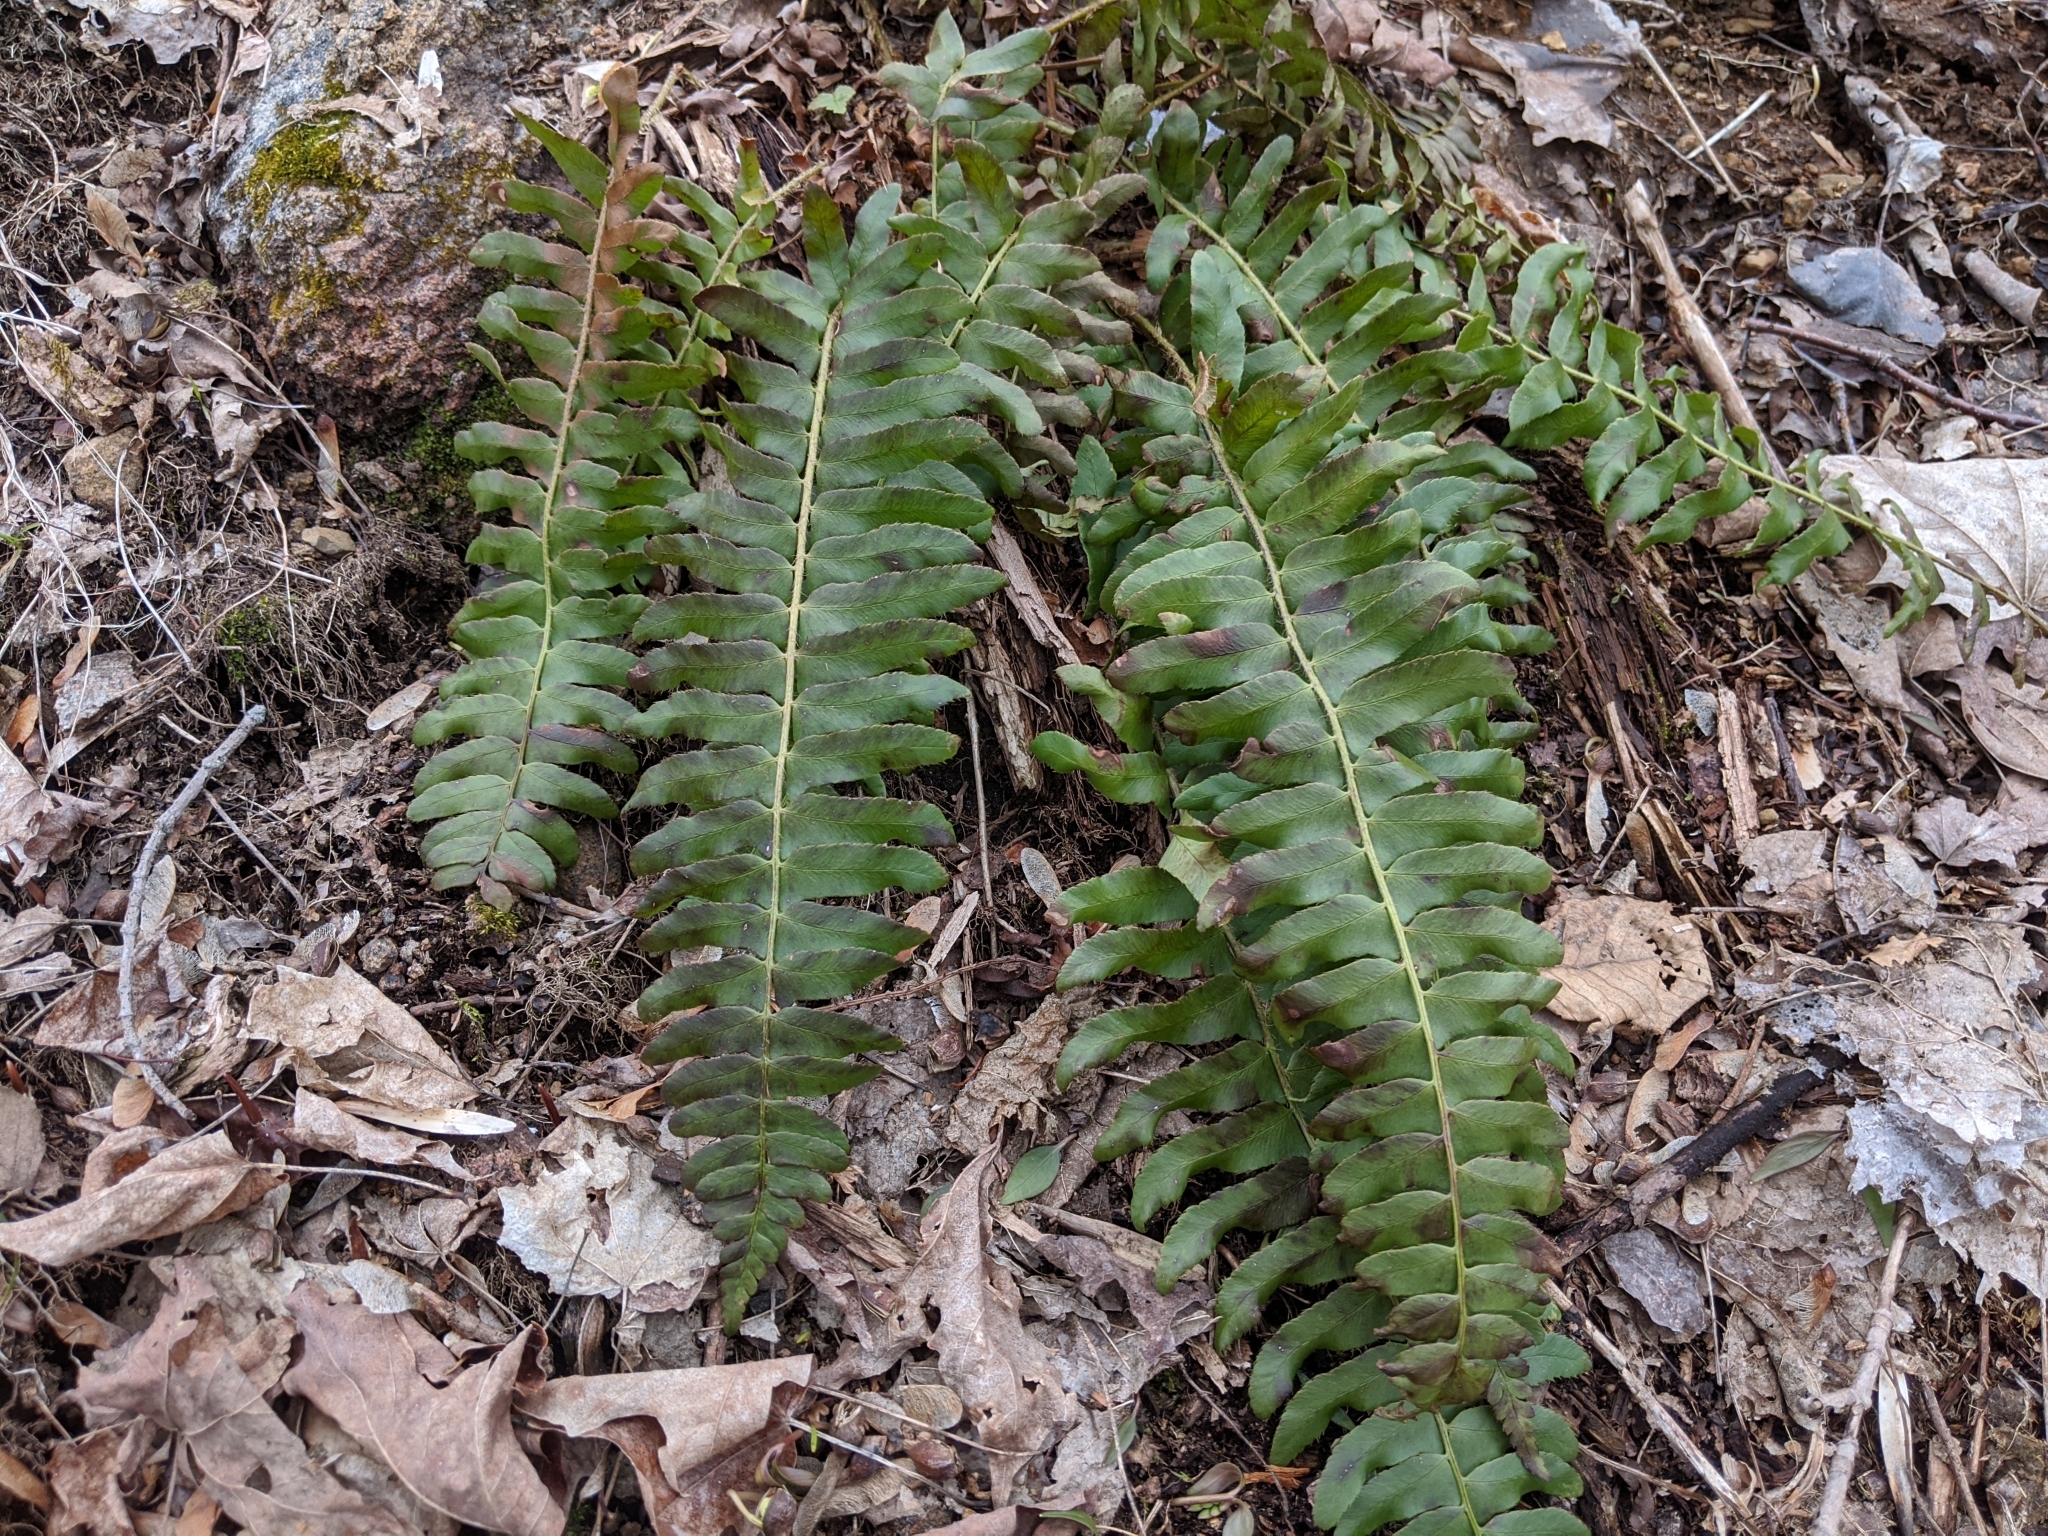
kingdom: Plantae
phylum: Tracheophyta
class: Polypodiopsida
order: Polypodiales
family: Dryopteridaceae
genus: Polystichum
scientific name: Polystichum acrostichoides
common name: Christmas fern
